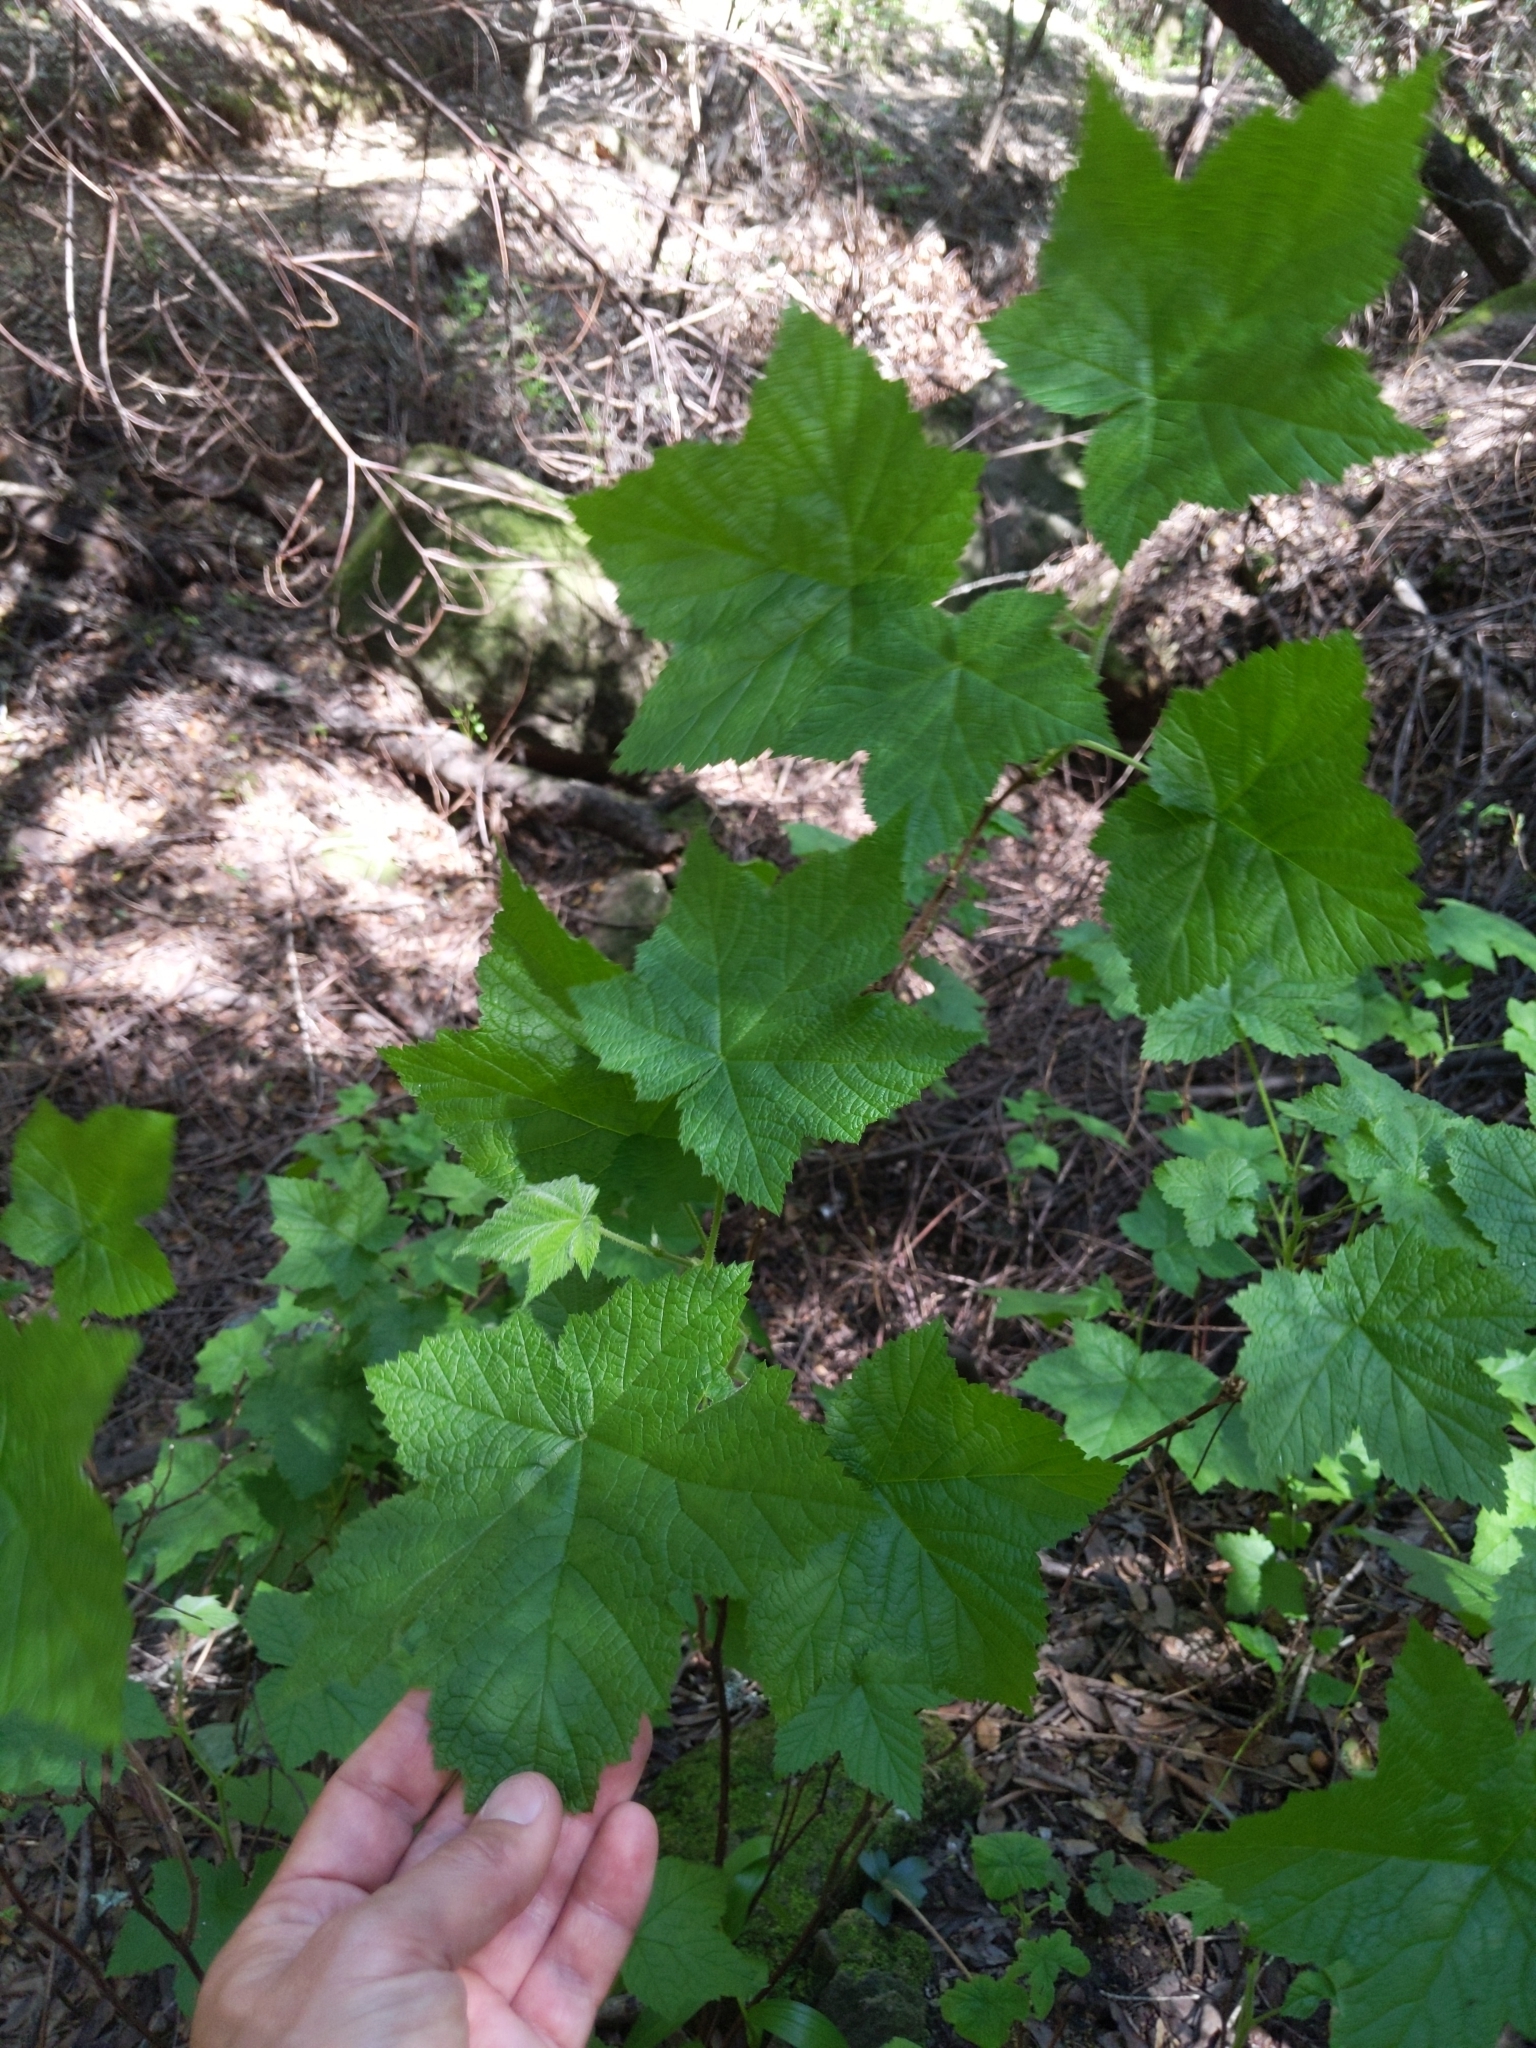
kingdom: Plantae
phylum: Tracheophyta
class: Magnoliopsida
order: Rosales
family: Rosaceae
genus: Rubus
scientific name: Rubus parviflorus
